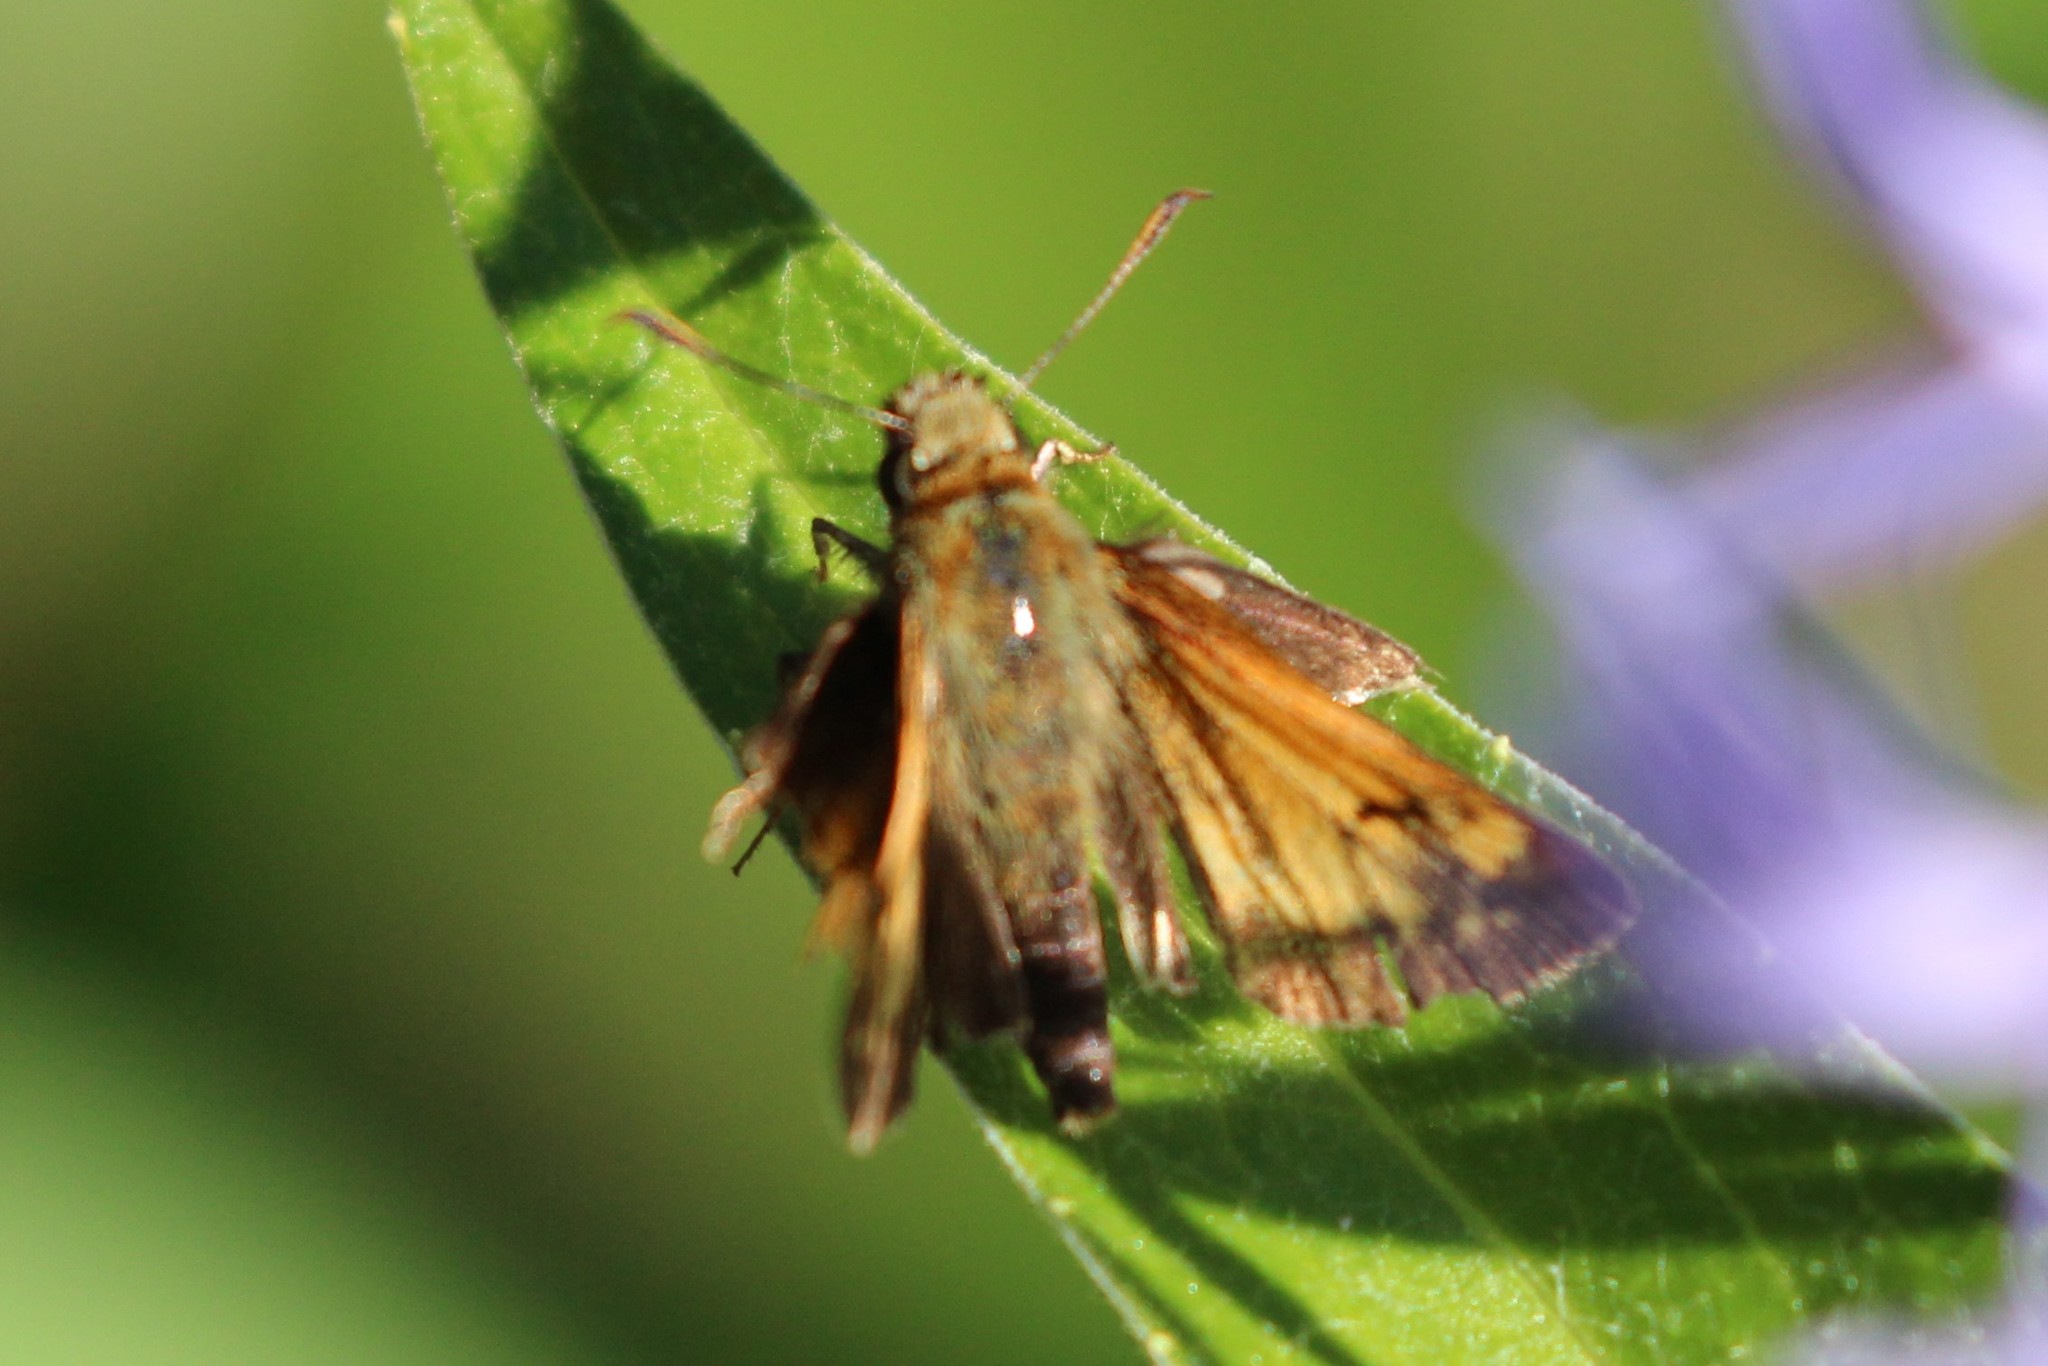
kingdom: Animalia
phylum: Arthropoda
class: Insecta
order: Lepidoptera
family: Hesperiidae
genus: Lon
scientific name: Lon hobomok
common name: Hobomok skipper
